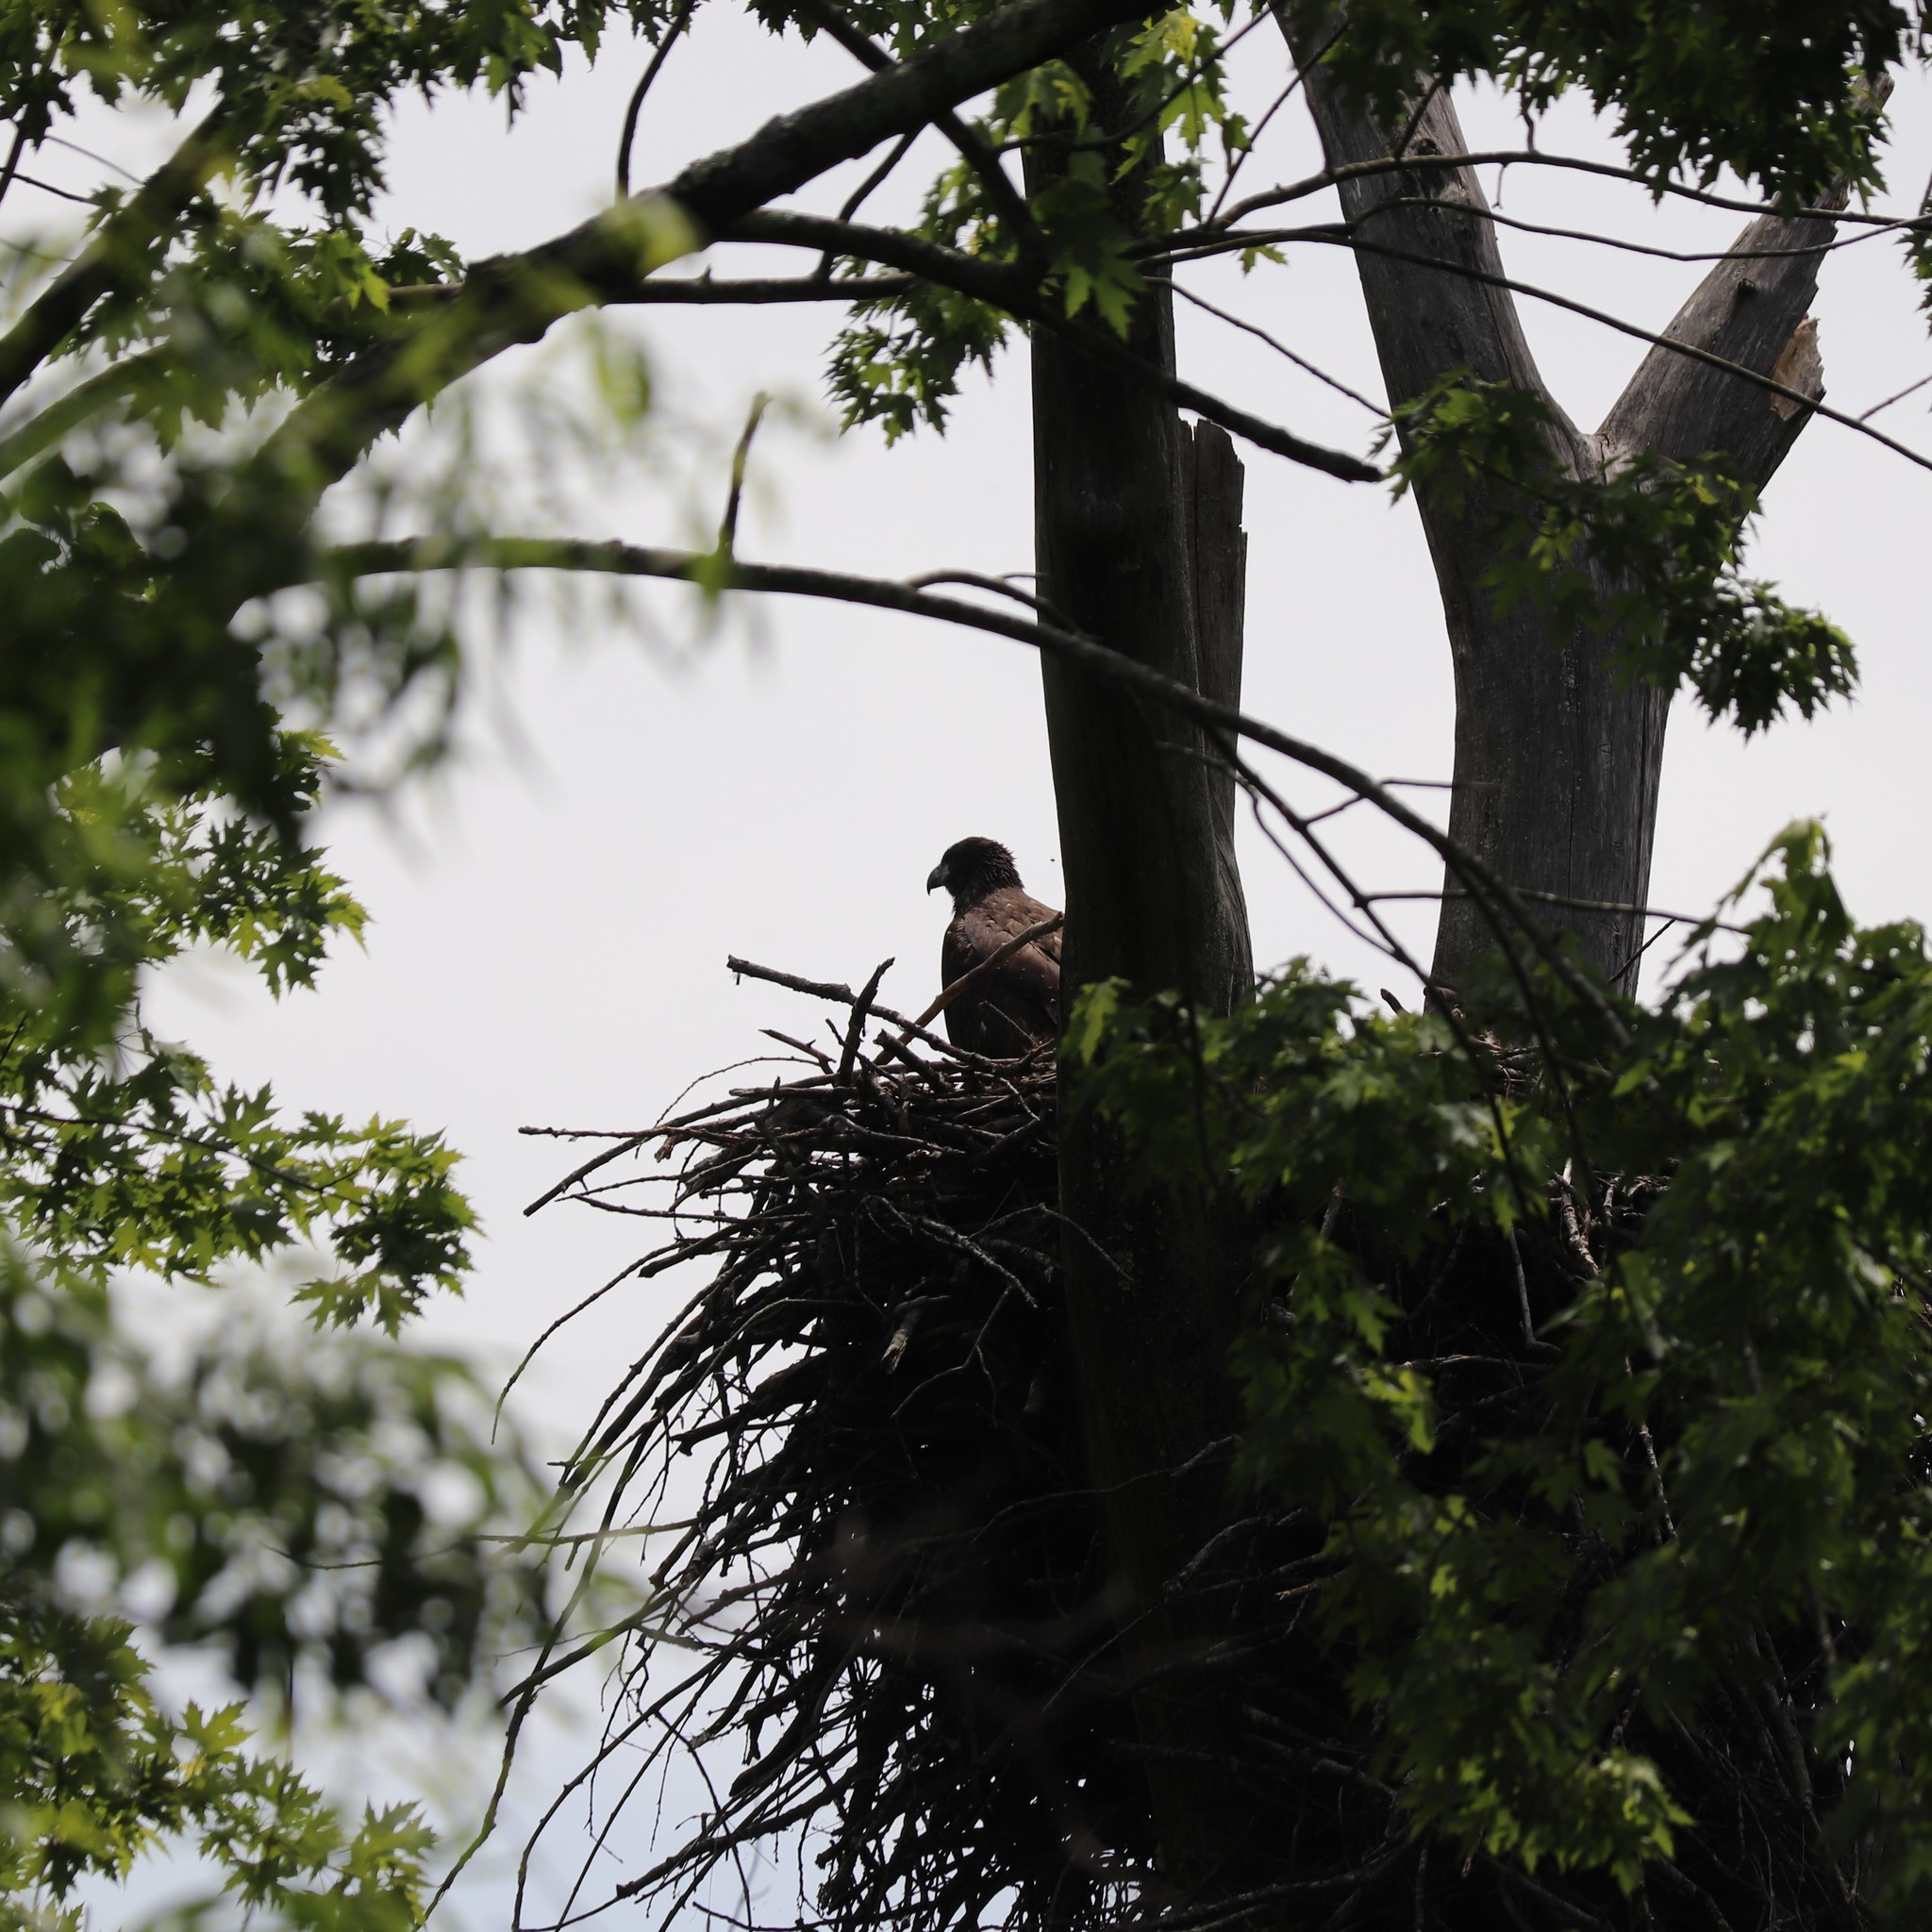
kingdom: Animalia
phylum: Chordata
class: Aves
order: Accipitriformes
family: Accipitridae
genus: Haliaeetus
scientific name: Haliaeetus leucocephalus
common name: Bald eagle
